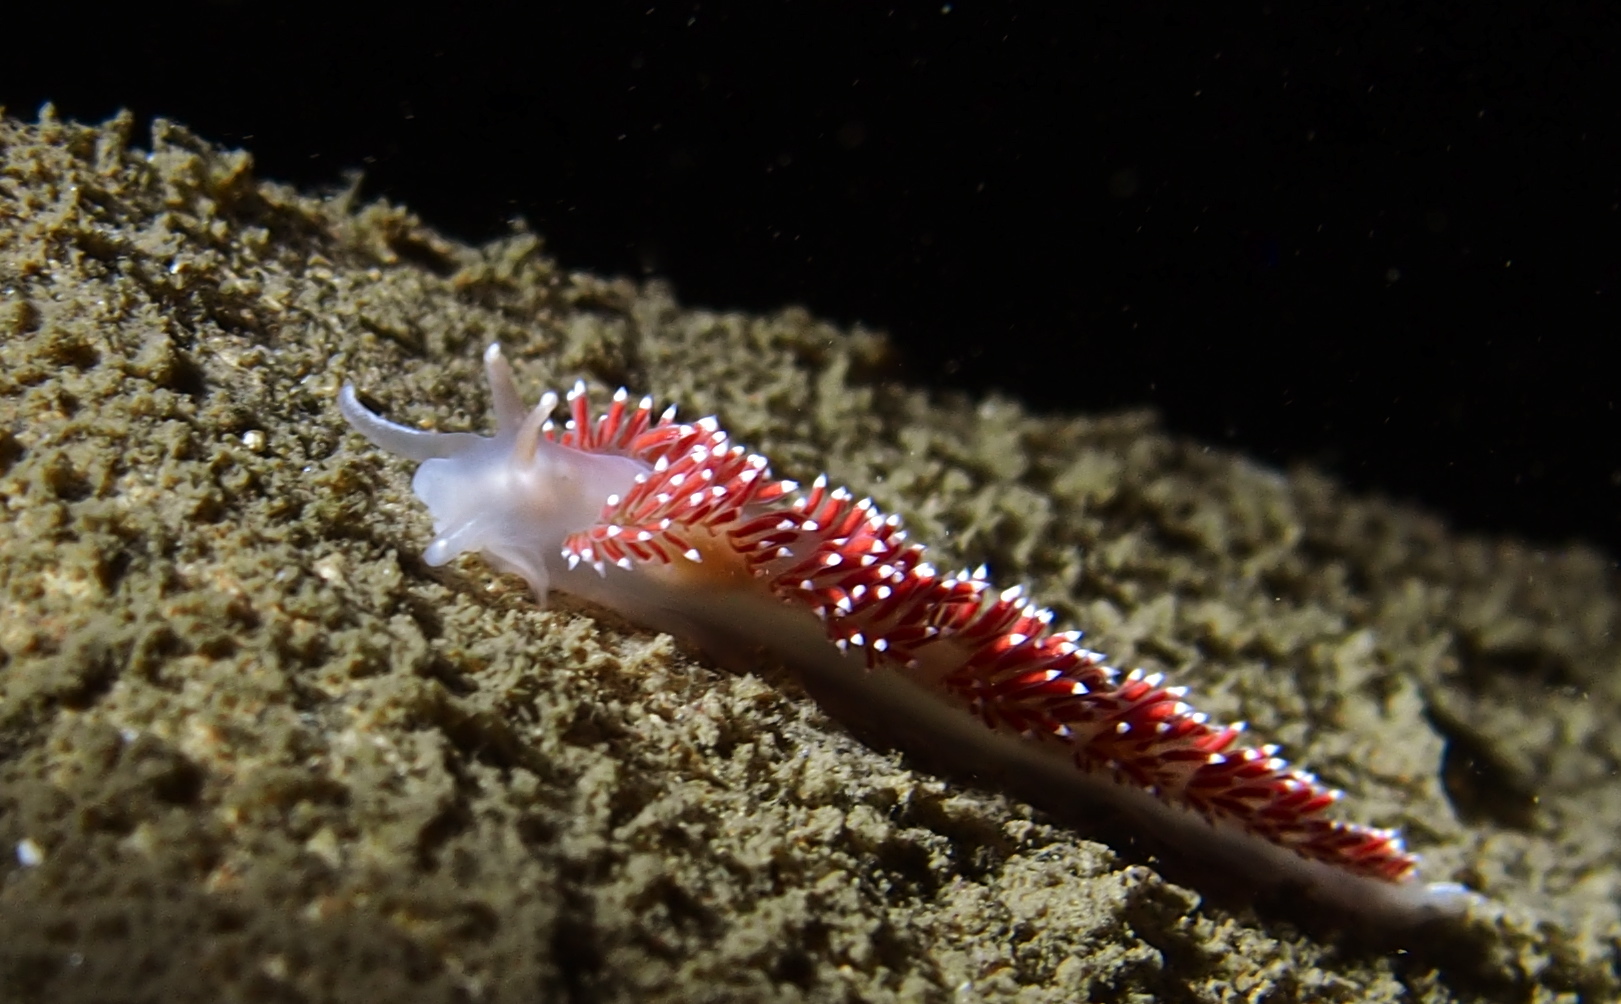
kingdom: Animalia
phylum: Mollusca
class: Gastropoda
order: Nudibranchia
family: Coryphellidae
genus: Coryphella
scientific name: Coryphella verrucosa
